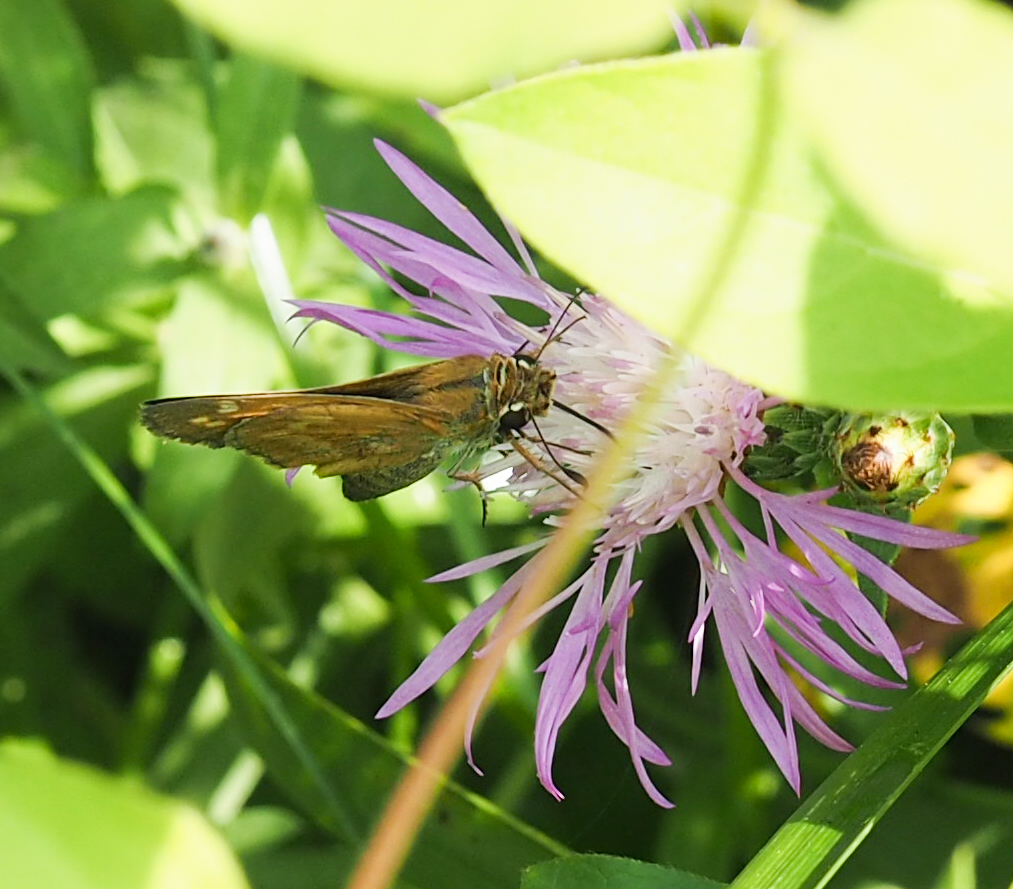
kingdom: Animalia
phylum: Arthropoda
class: Insecta
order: Lepidoptera
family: Hesperiidae
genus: Atalopedes
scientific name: Atalopedes
